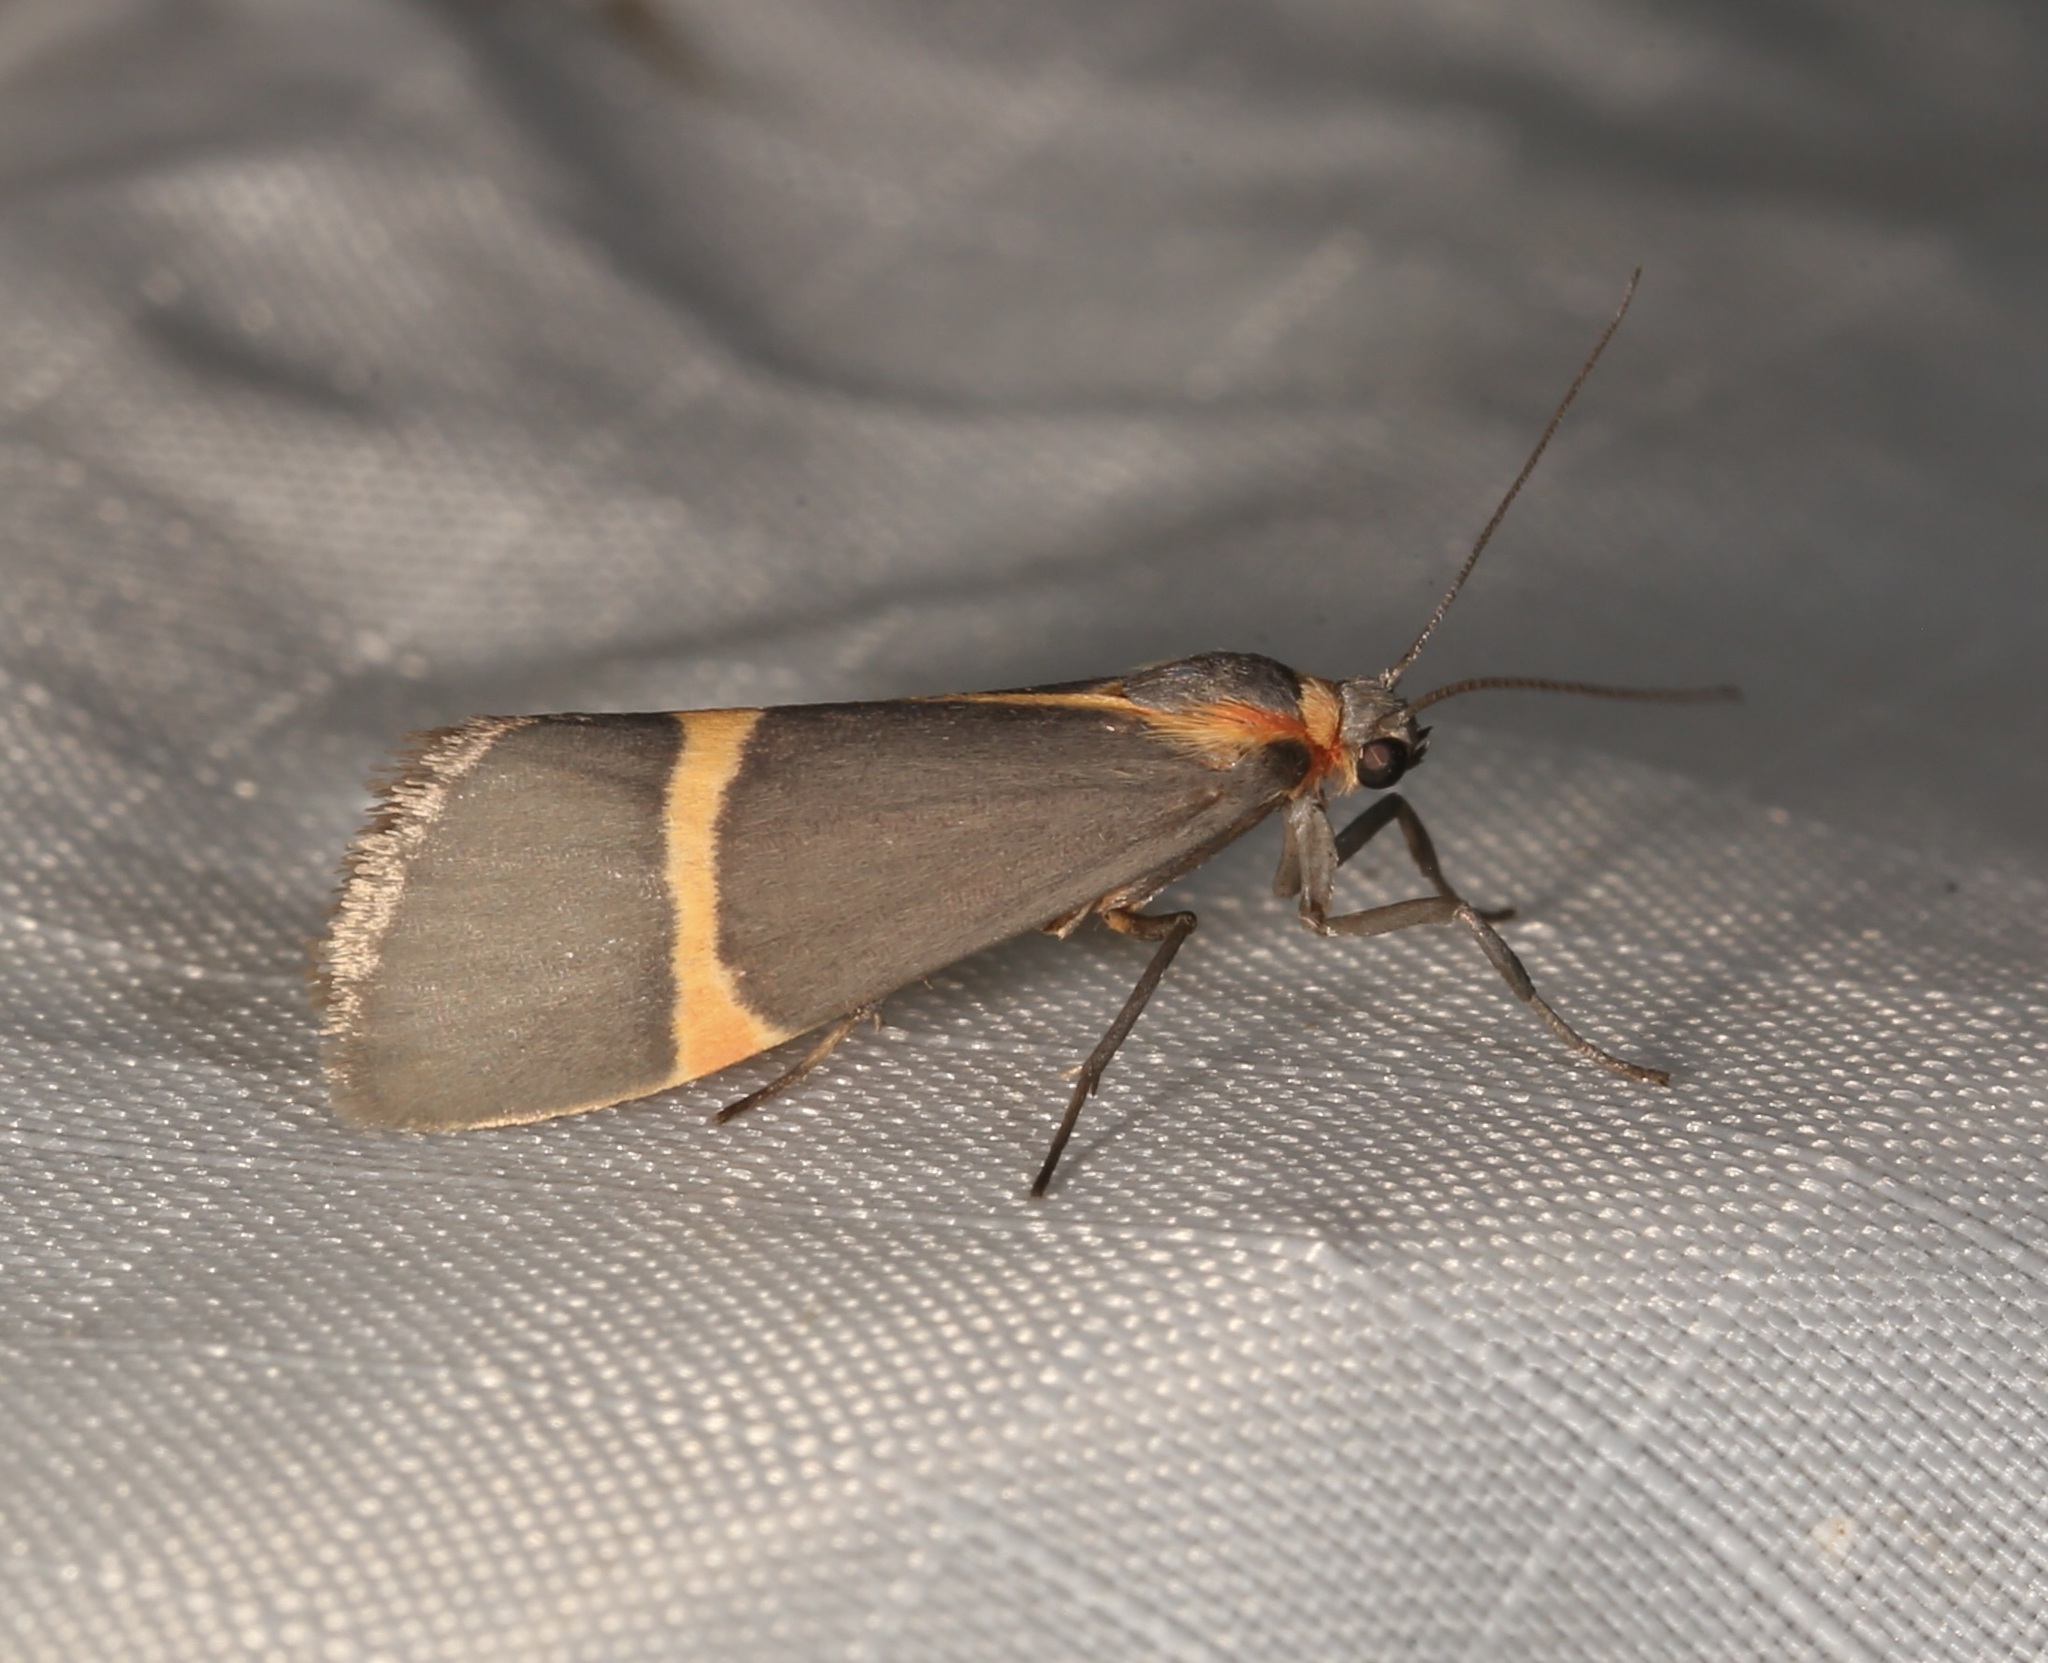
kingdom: Animalia
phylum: Arthropoda
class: Insecta
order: Lepidoptera
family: Erebidae
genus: Cisthene
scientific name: Cisthene barnesii
